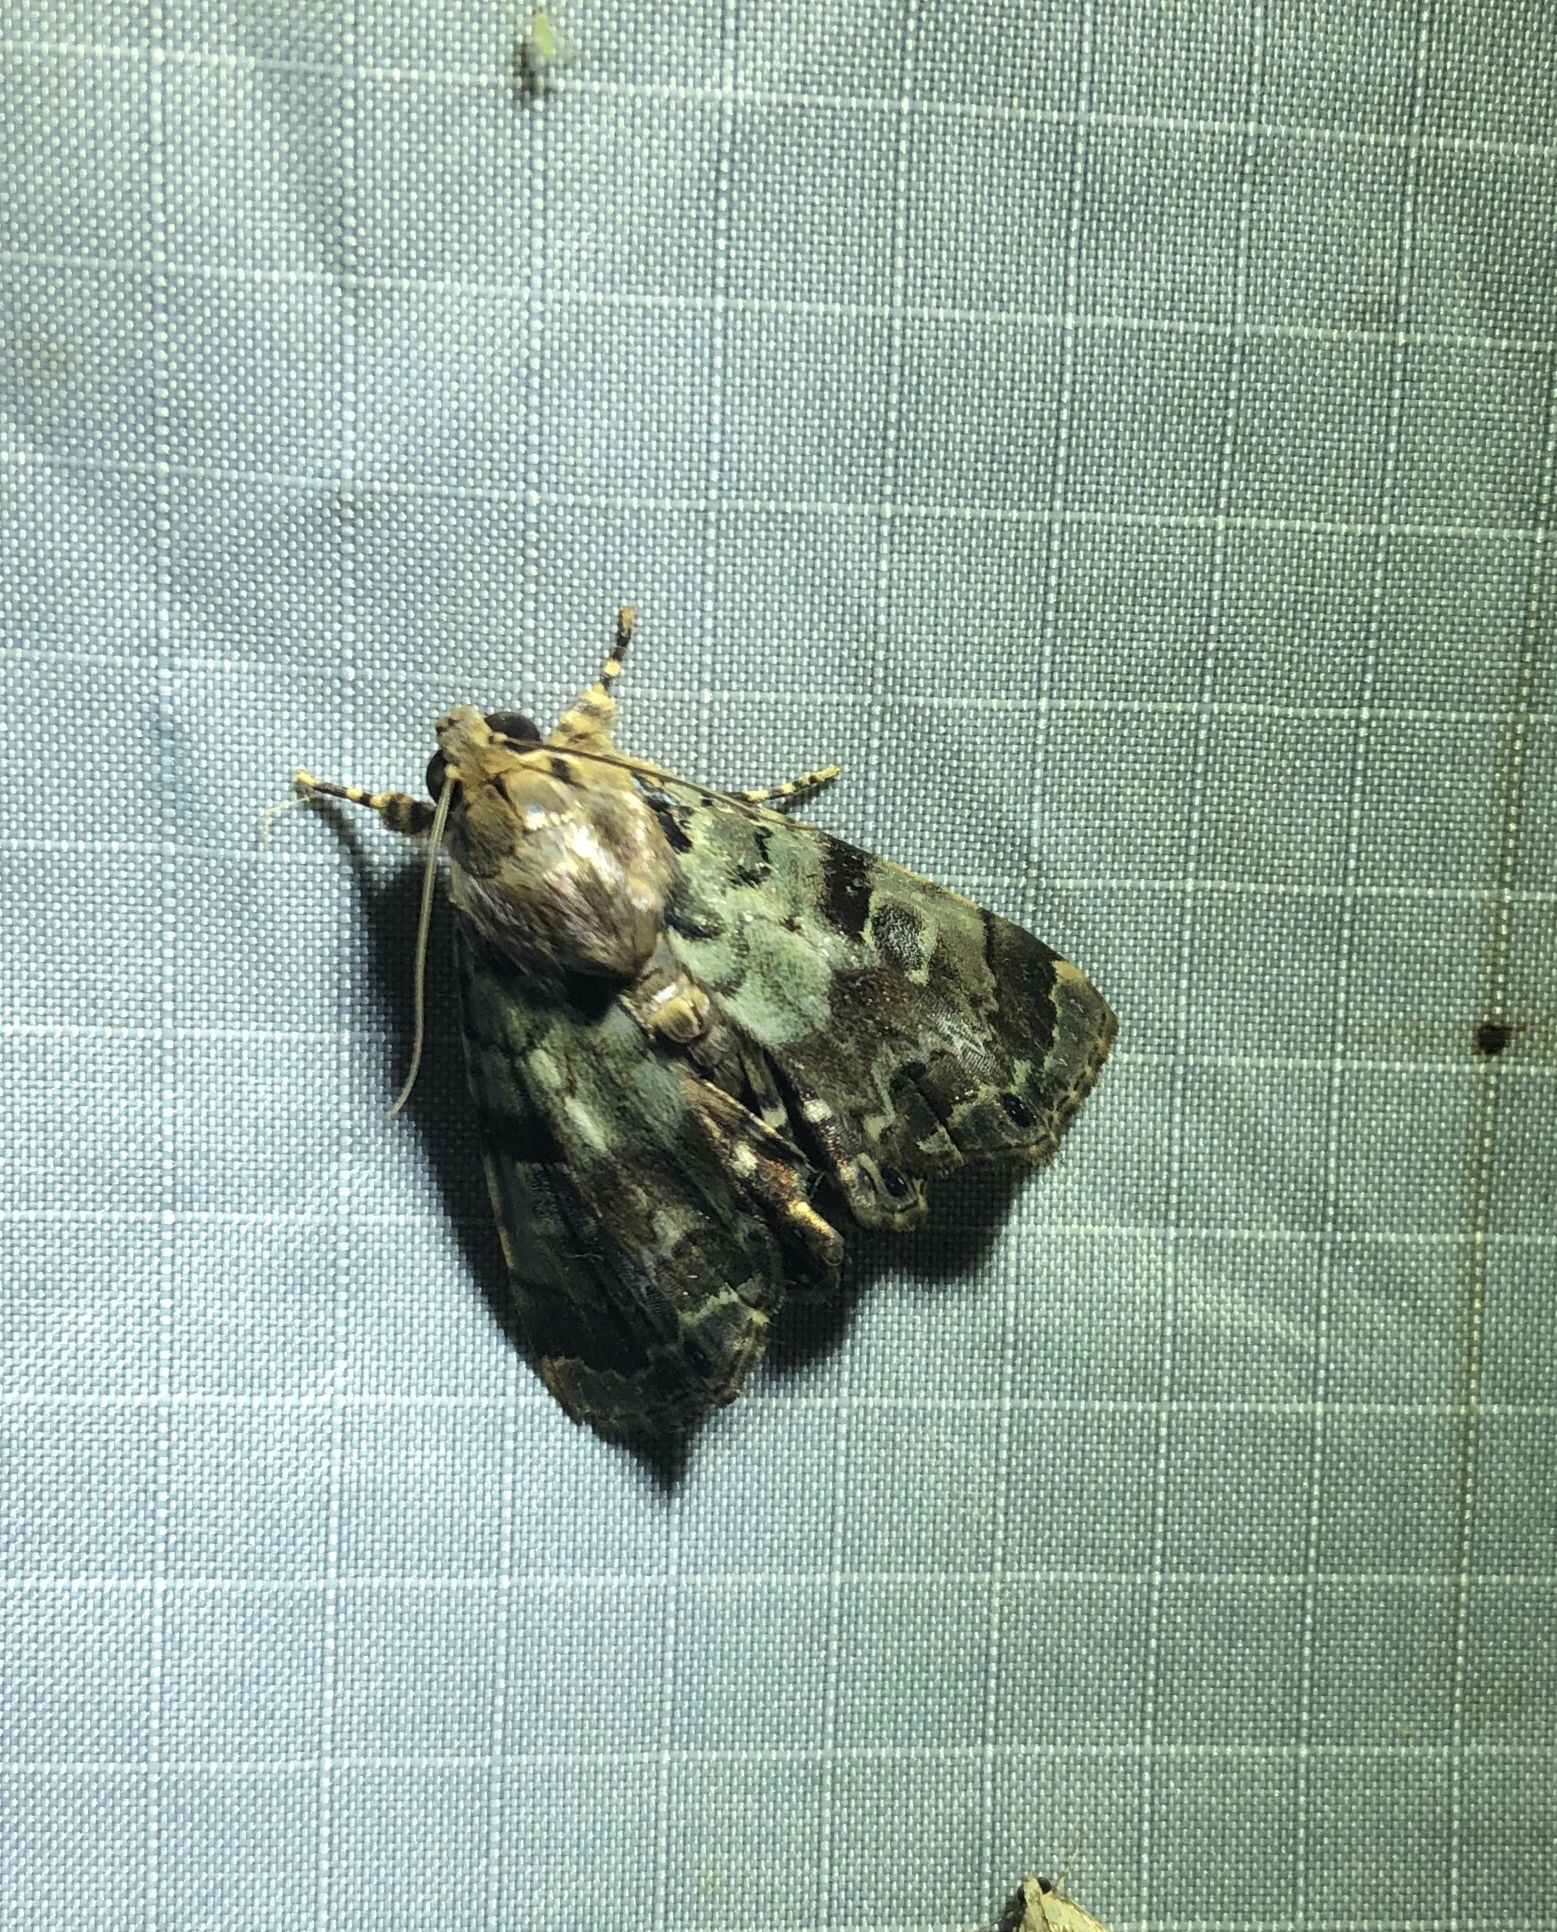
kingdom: Animalia
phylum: Arthropoda
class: Insecta
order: Lepidoptera
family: Erebidae
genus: Dyops
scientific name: Dyops chromatophila
